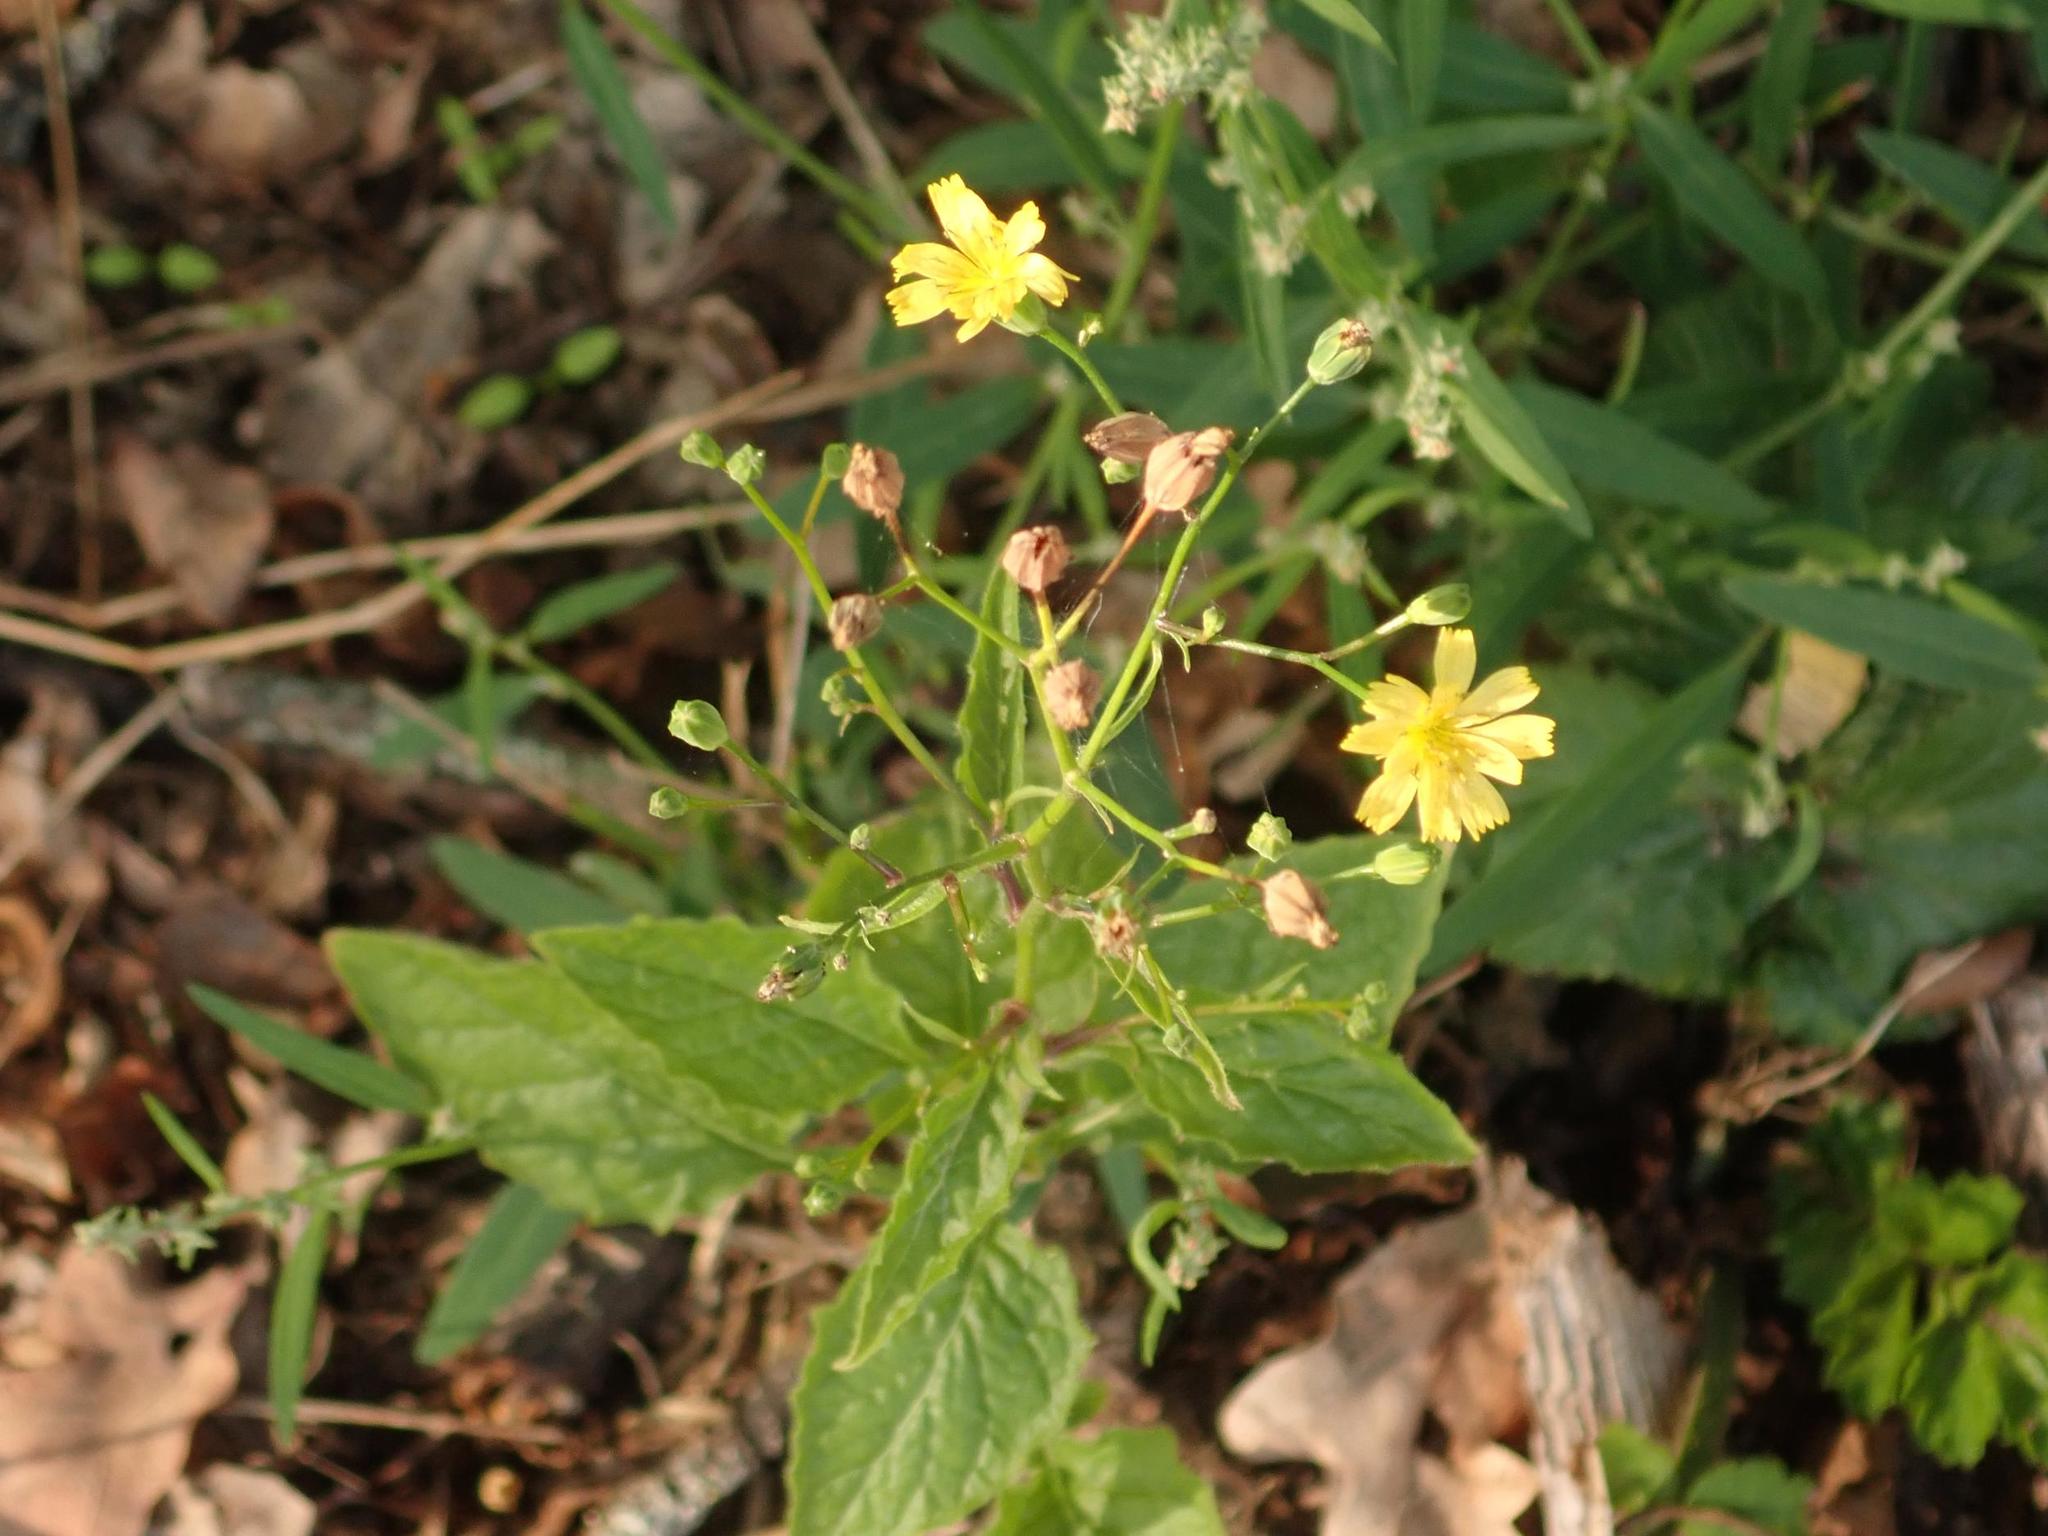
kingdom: Plantae
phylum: Tracheophyta
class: Magnoliopsida
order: Asterales
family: Asteraceae
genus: Lapsana
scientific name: Lapsana communis
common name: Nipplewort
